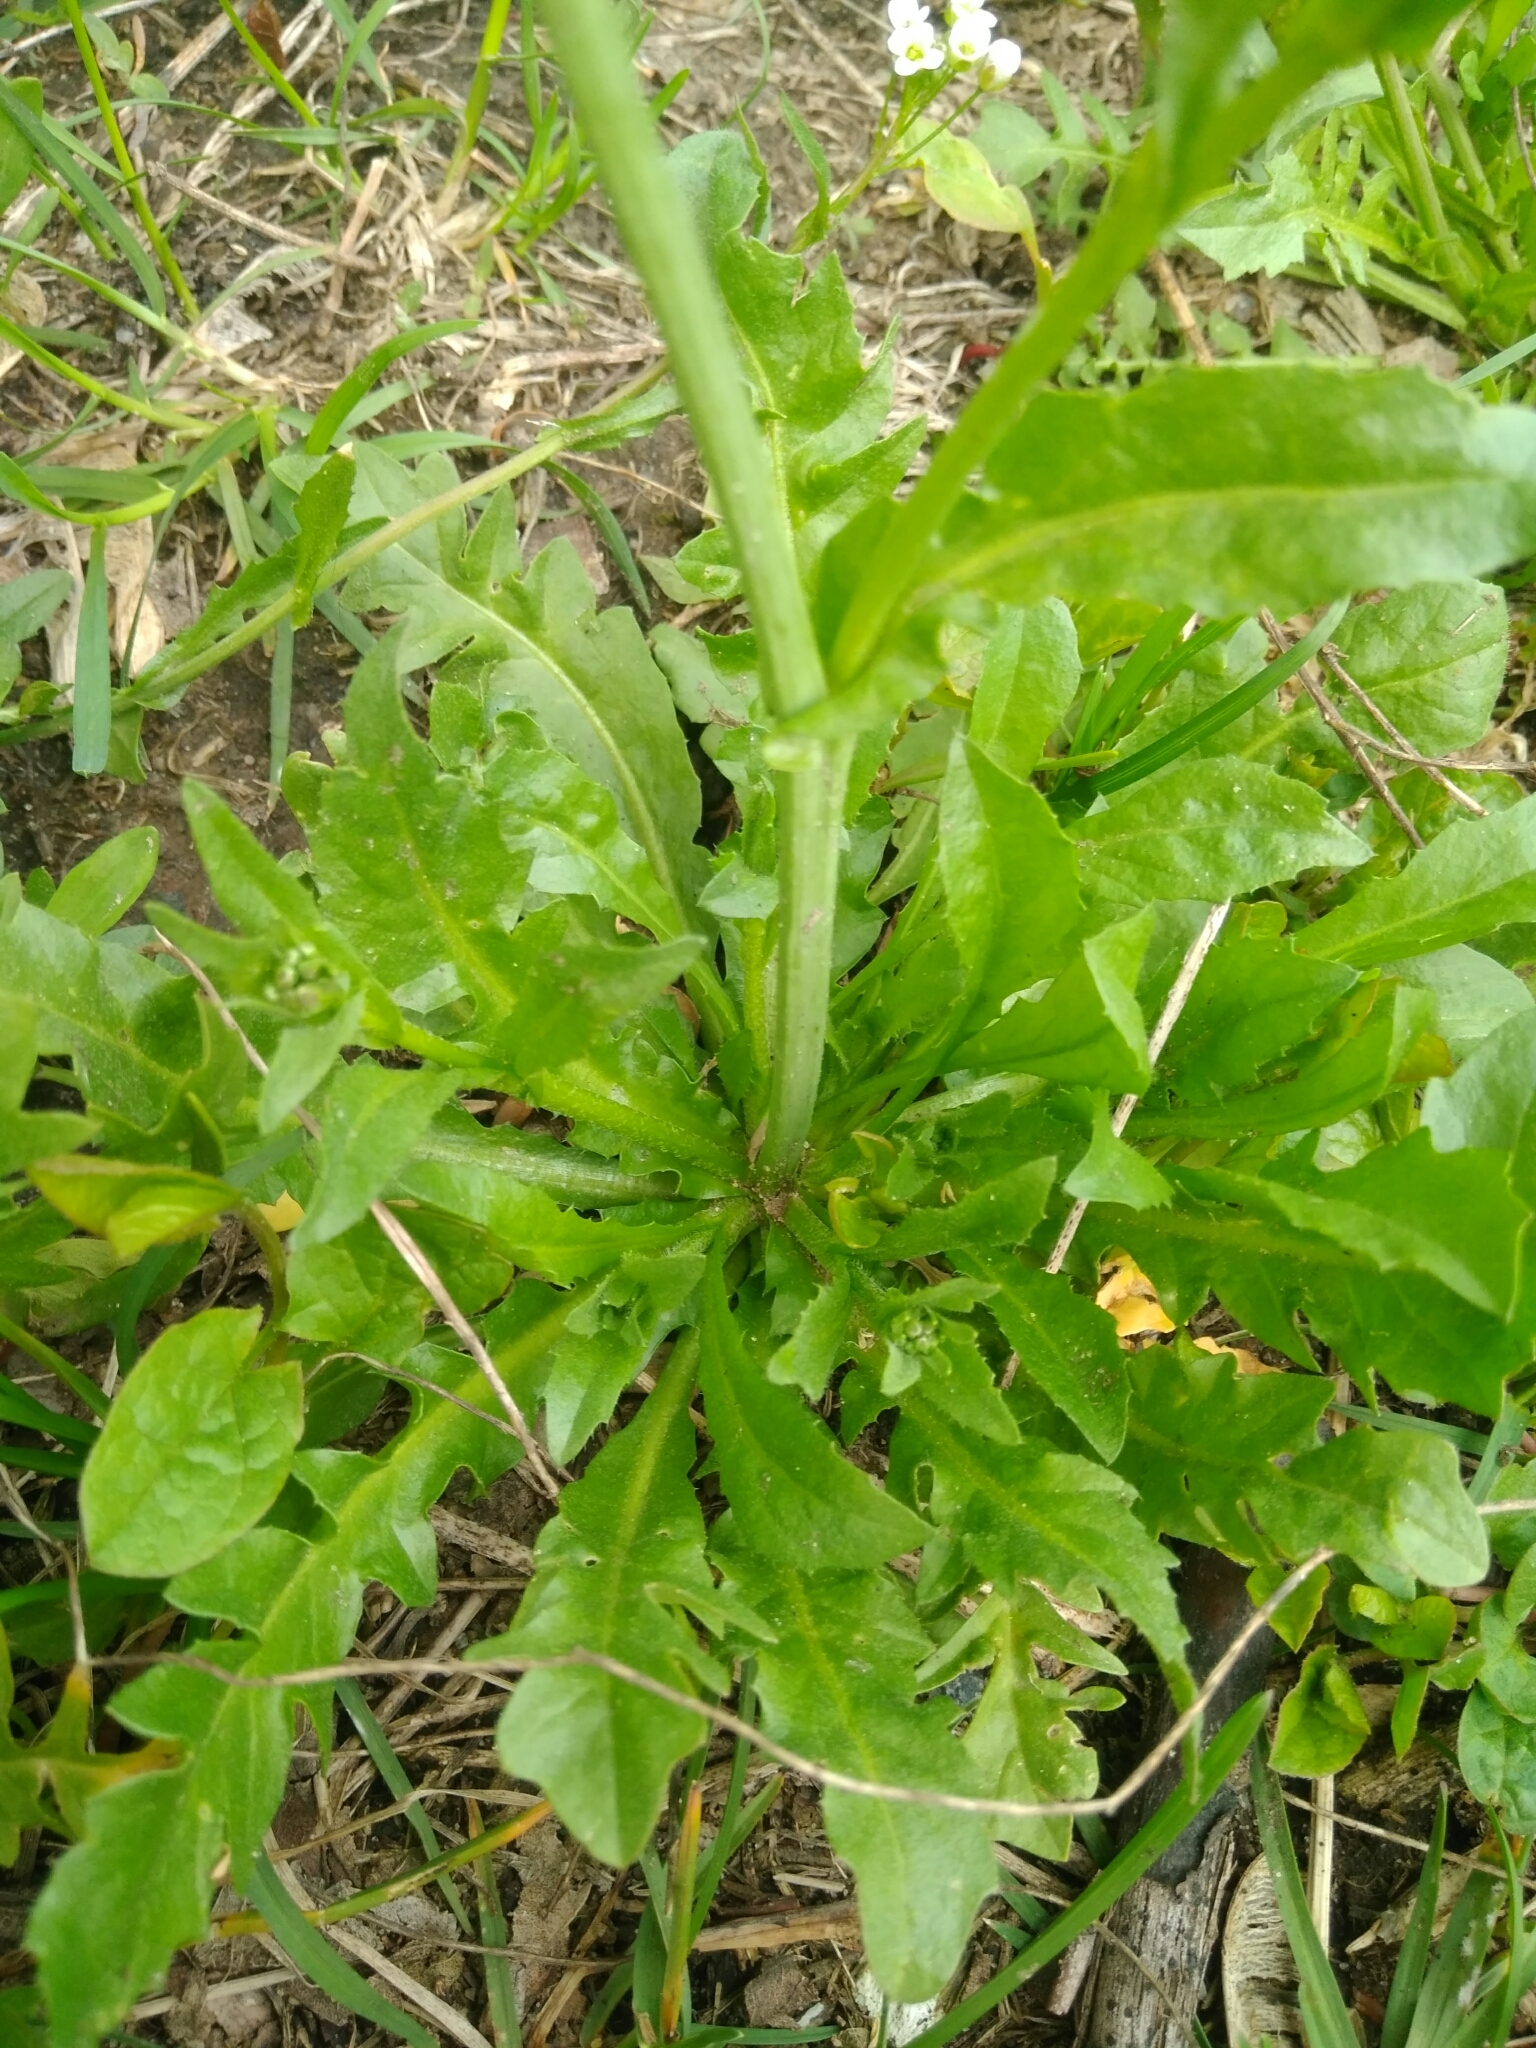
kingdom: Plantae
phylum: Tracheophyta
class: Magnoliopsida
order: Brassicales
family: Brassicaceae
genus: Capsella
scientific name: Capsella bursa-pastoris
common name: Shepherd's purse
